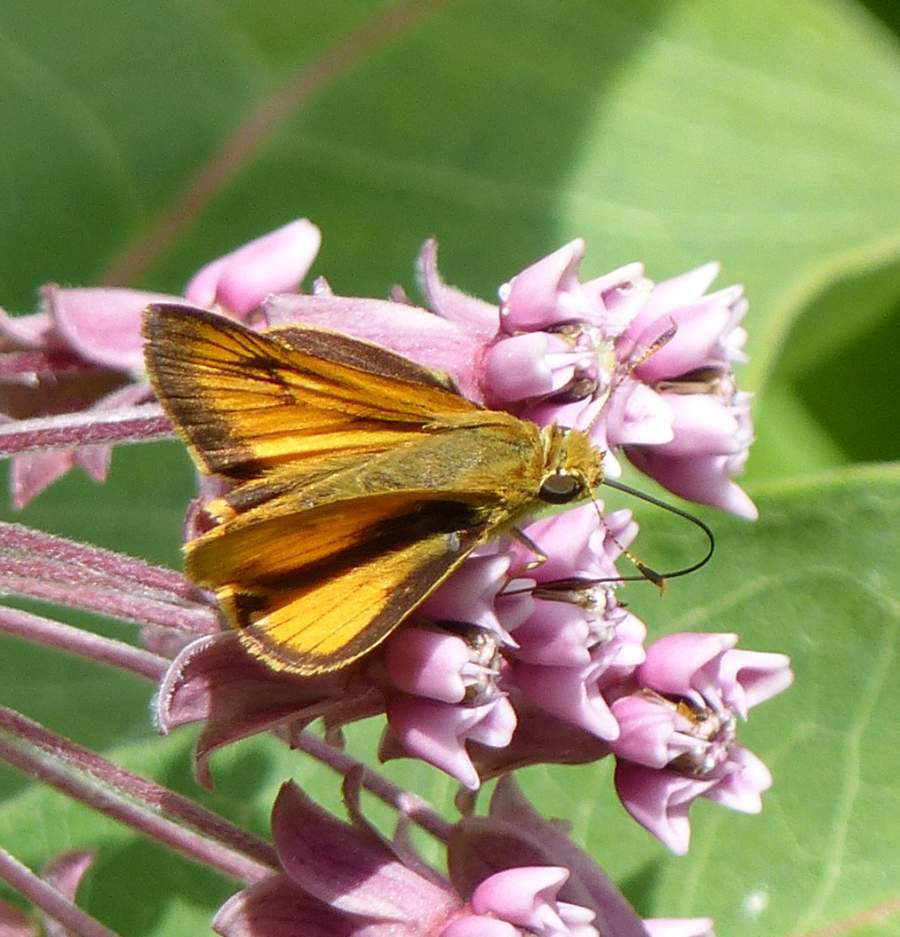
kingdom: Animalia
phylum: Arthropoda
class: Insecta
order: Lepidoptera
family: Hesperiidae
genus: Atrytone
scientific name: Atrytone delaware
